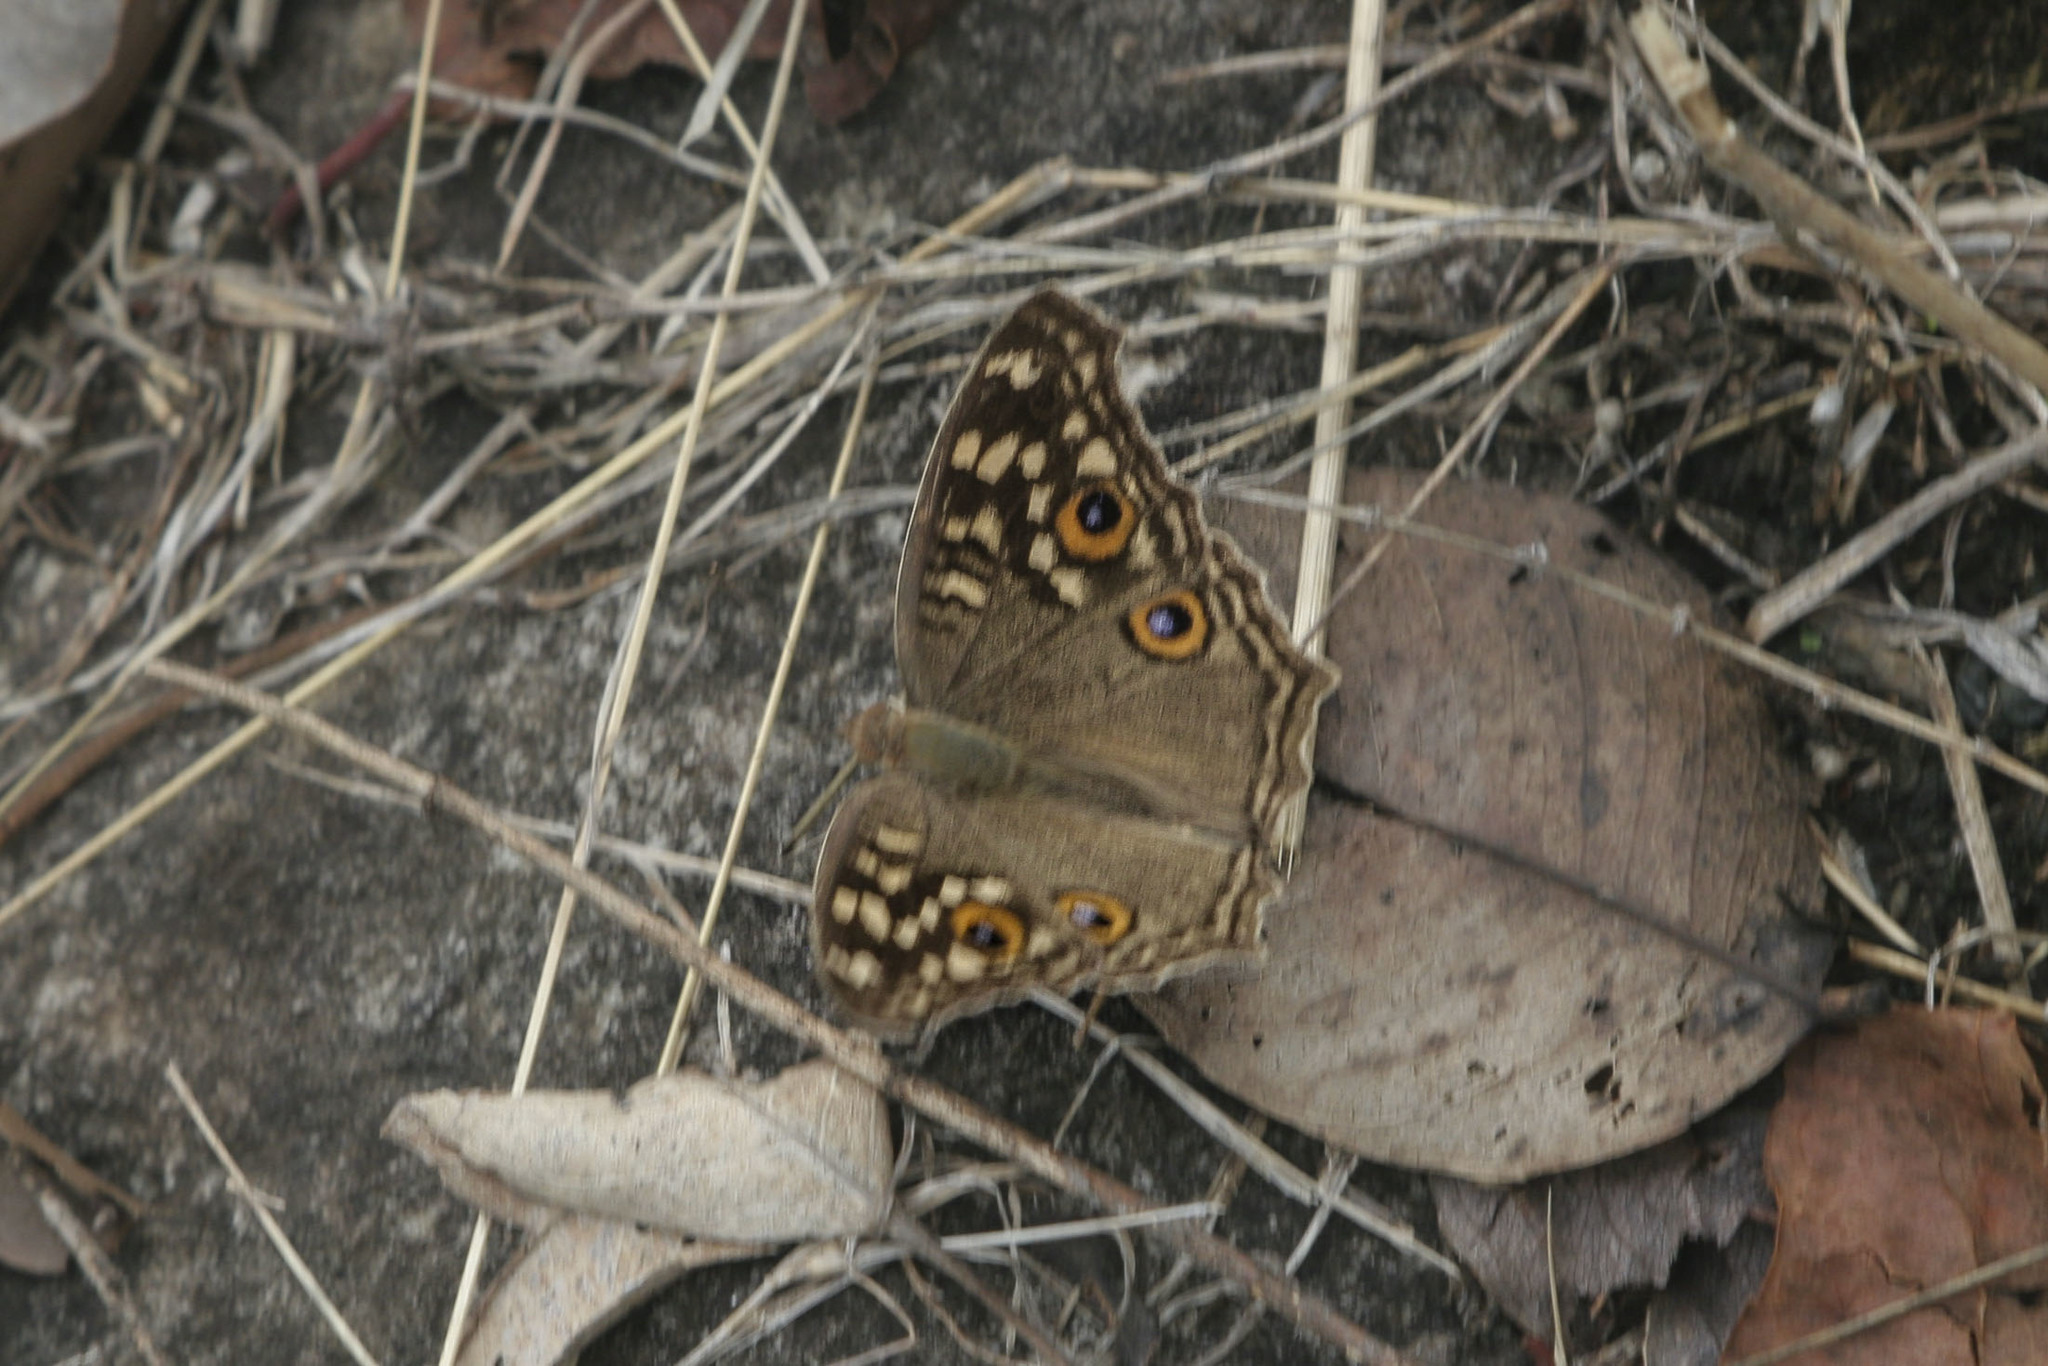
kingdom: Animalia
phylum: Arthropoda
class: Insecta
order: Lepidoptera
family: Nymphalidae
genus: Junonia
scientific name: Junonia lemonias
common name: Lemon pansy
